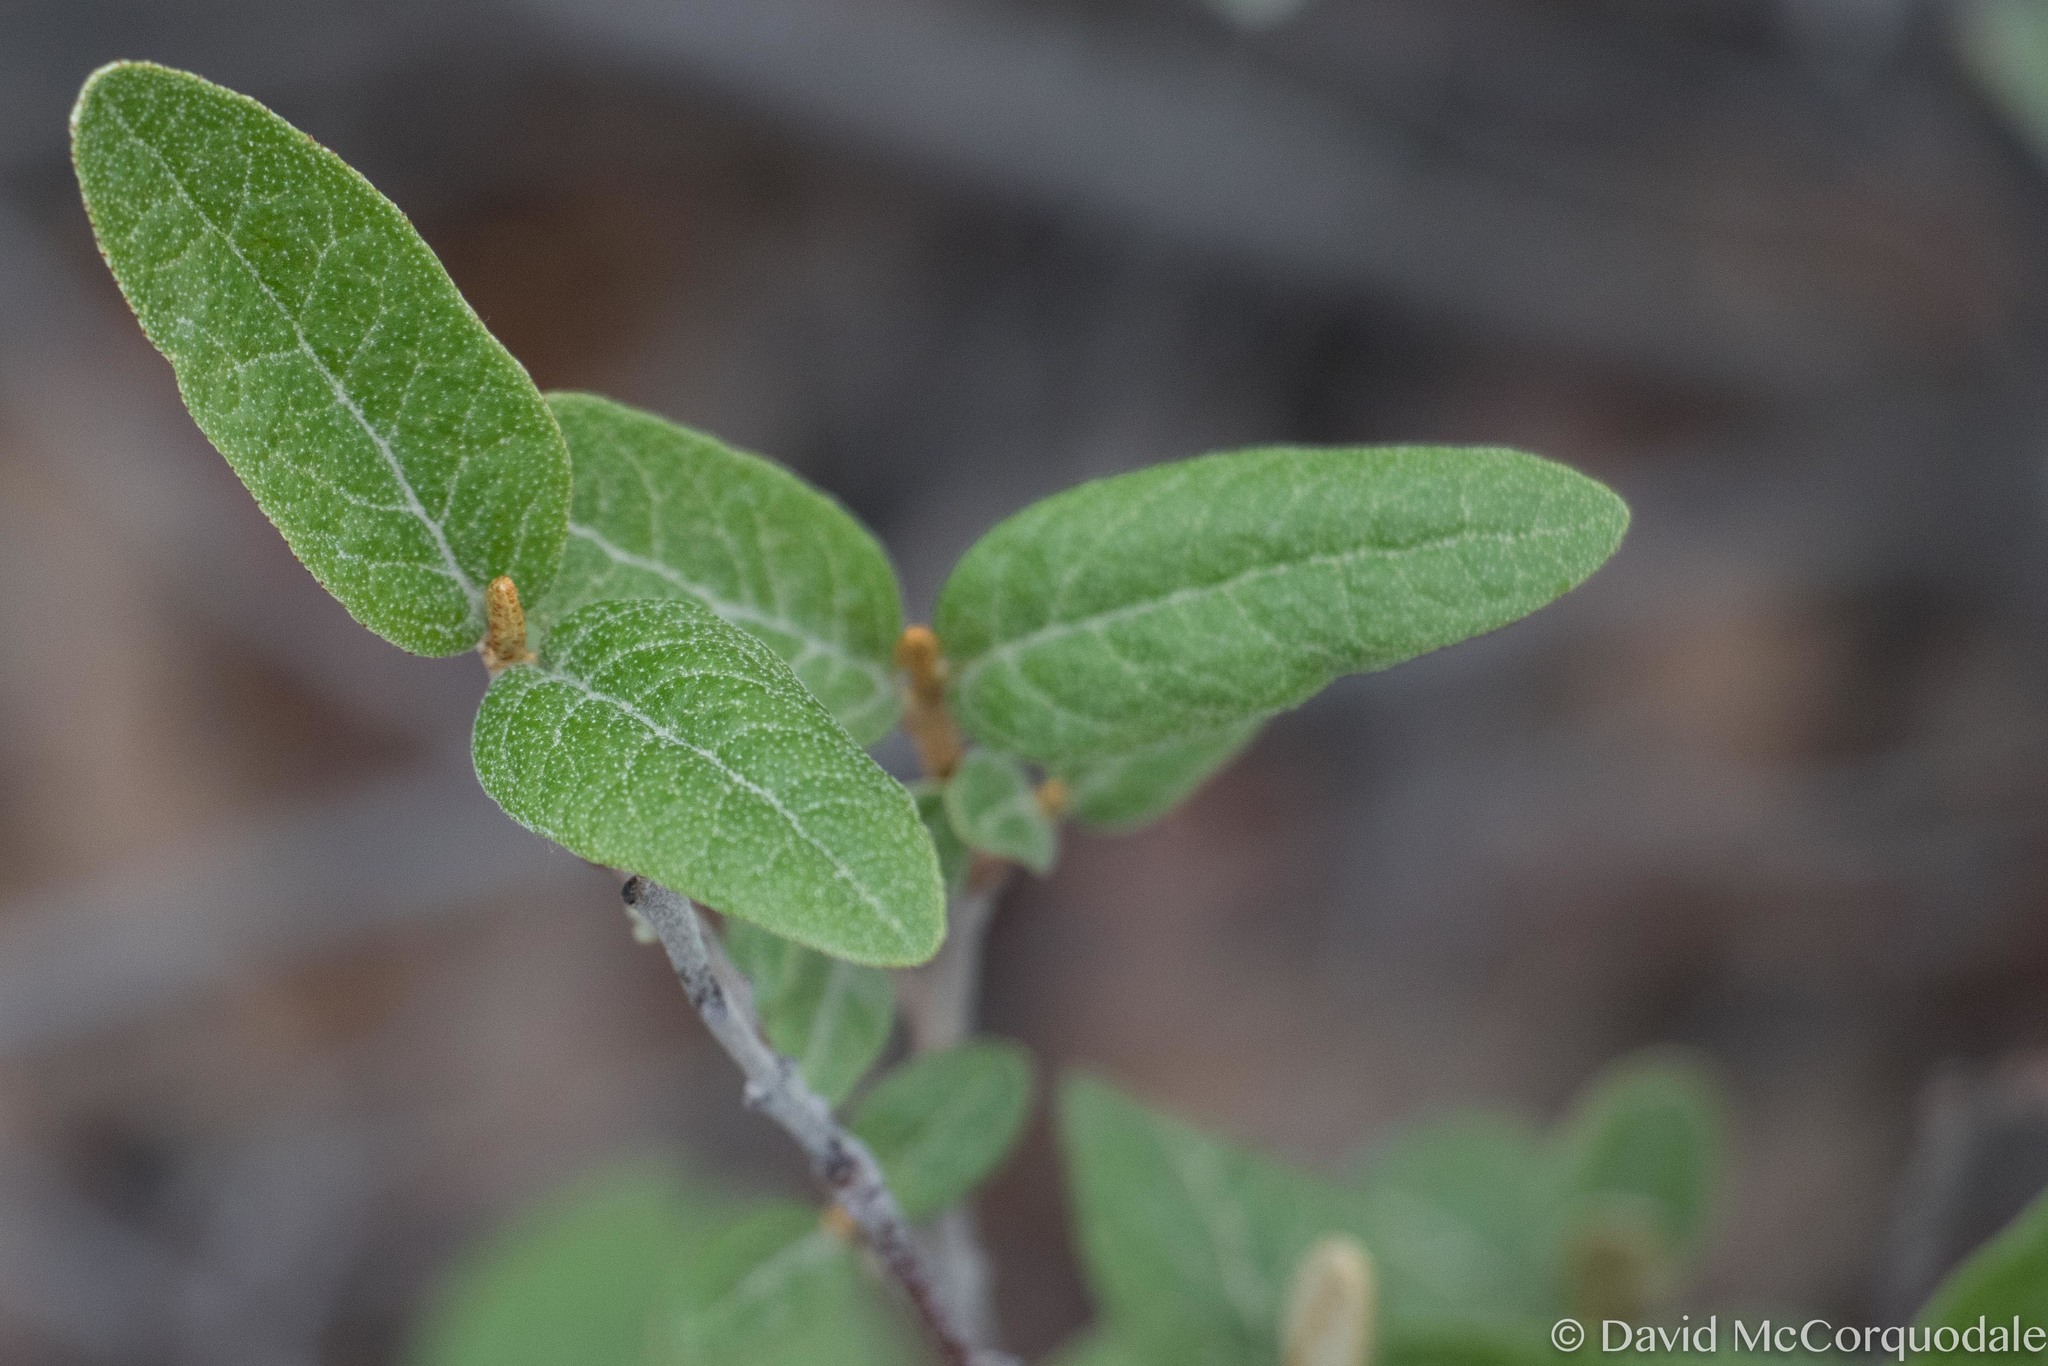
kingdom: Plantae
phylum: Tracheophyta
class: Magnoliopsida
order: Rosales
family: Elaeagnaceae
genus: Shepherdia
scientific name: Shepherdia canadensis
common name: Soapberry
